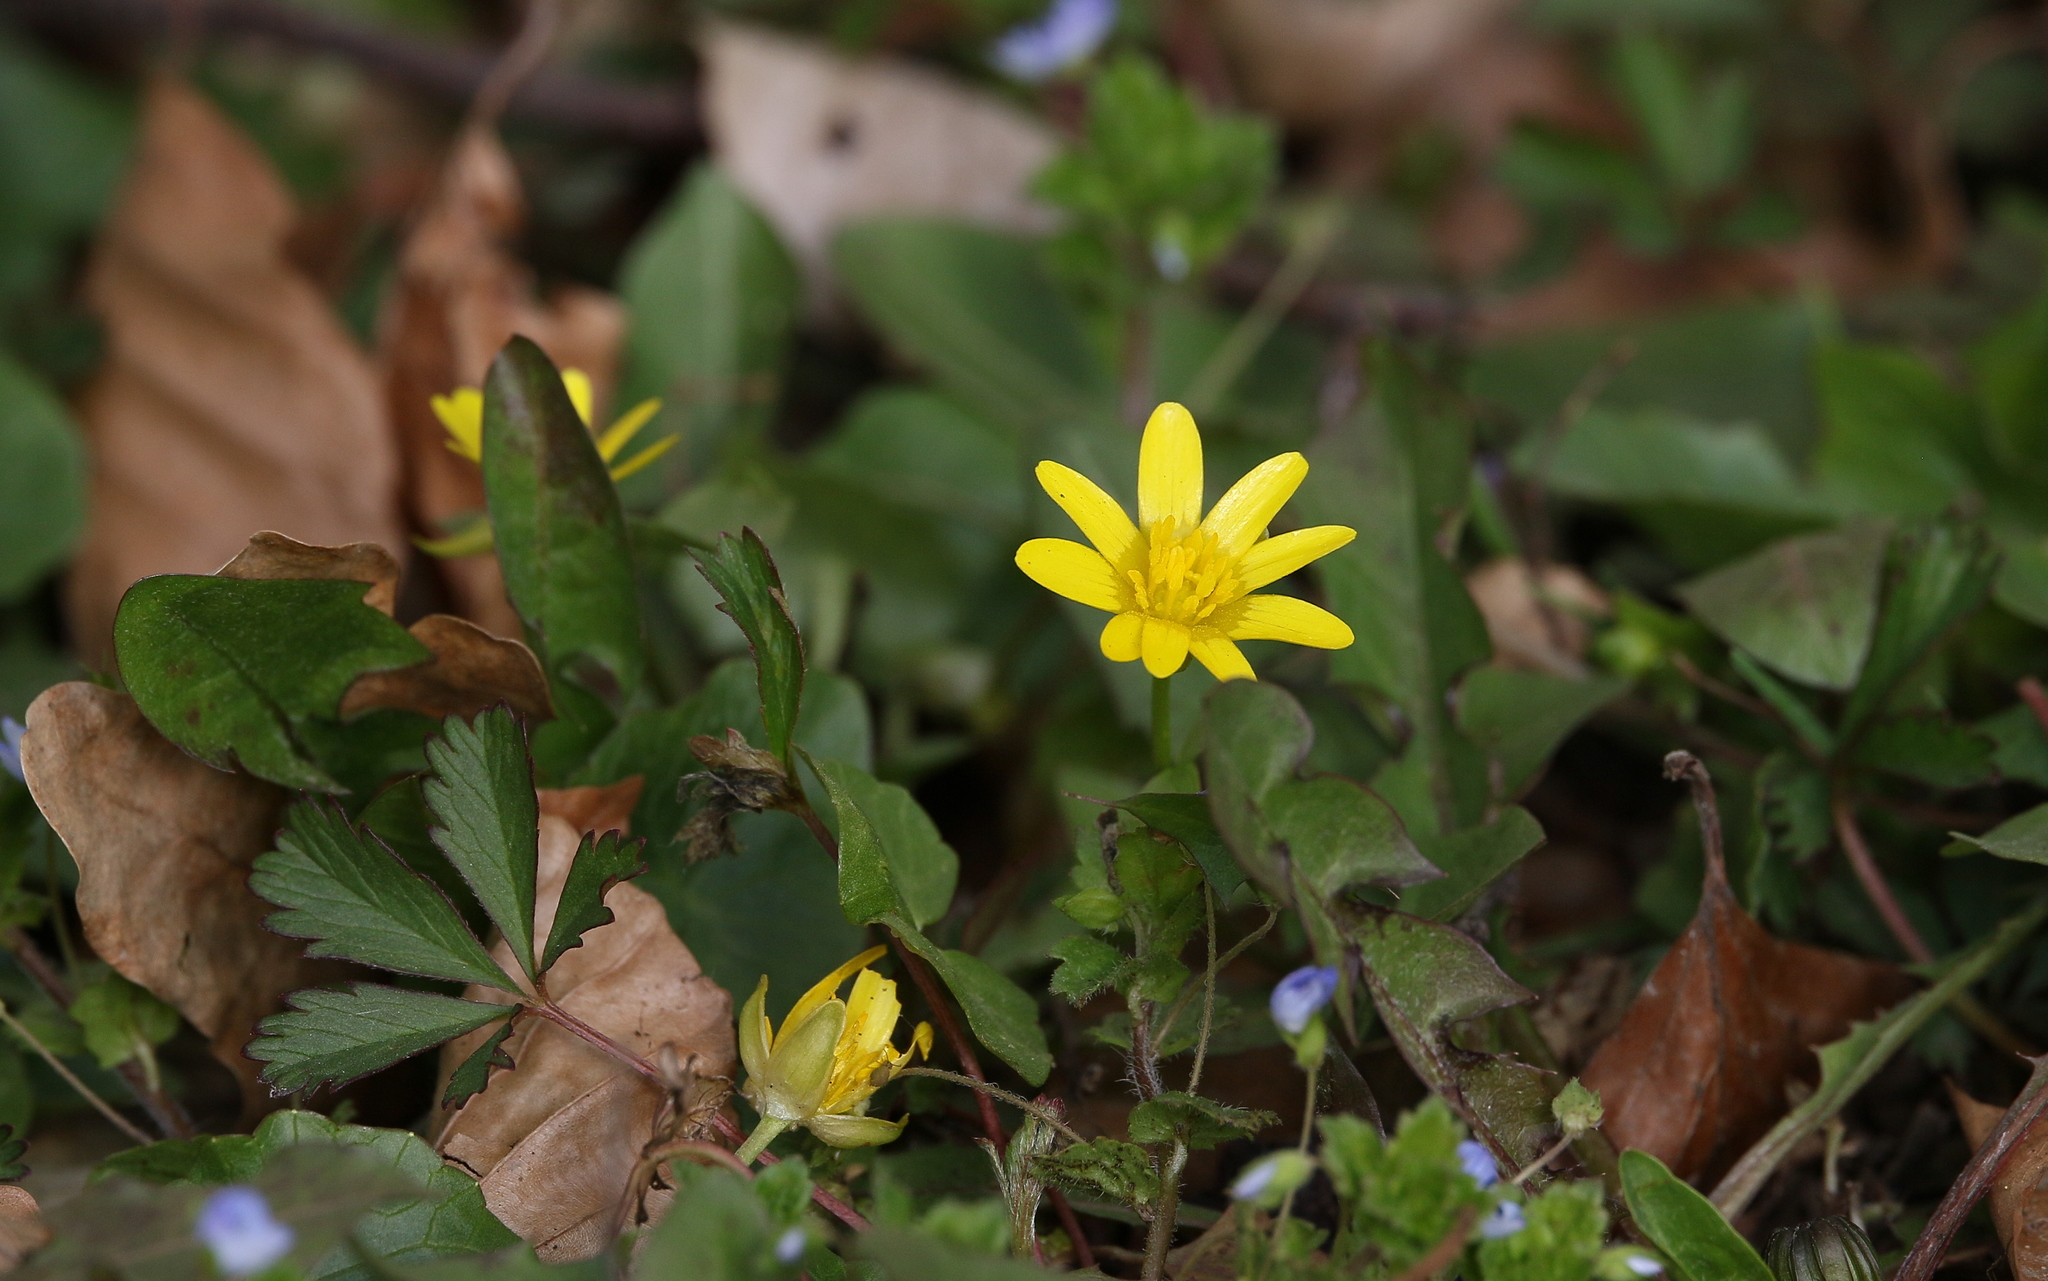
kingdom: Plantae
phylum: Tracheophyta
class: Magnoliopsida
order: Ranunculales
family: Ranunculaceae
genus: Ficaria
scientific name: Ficaria verna
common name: Lesser celandine
